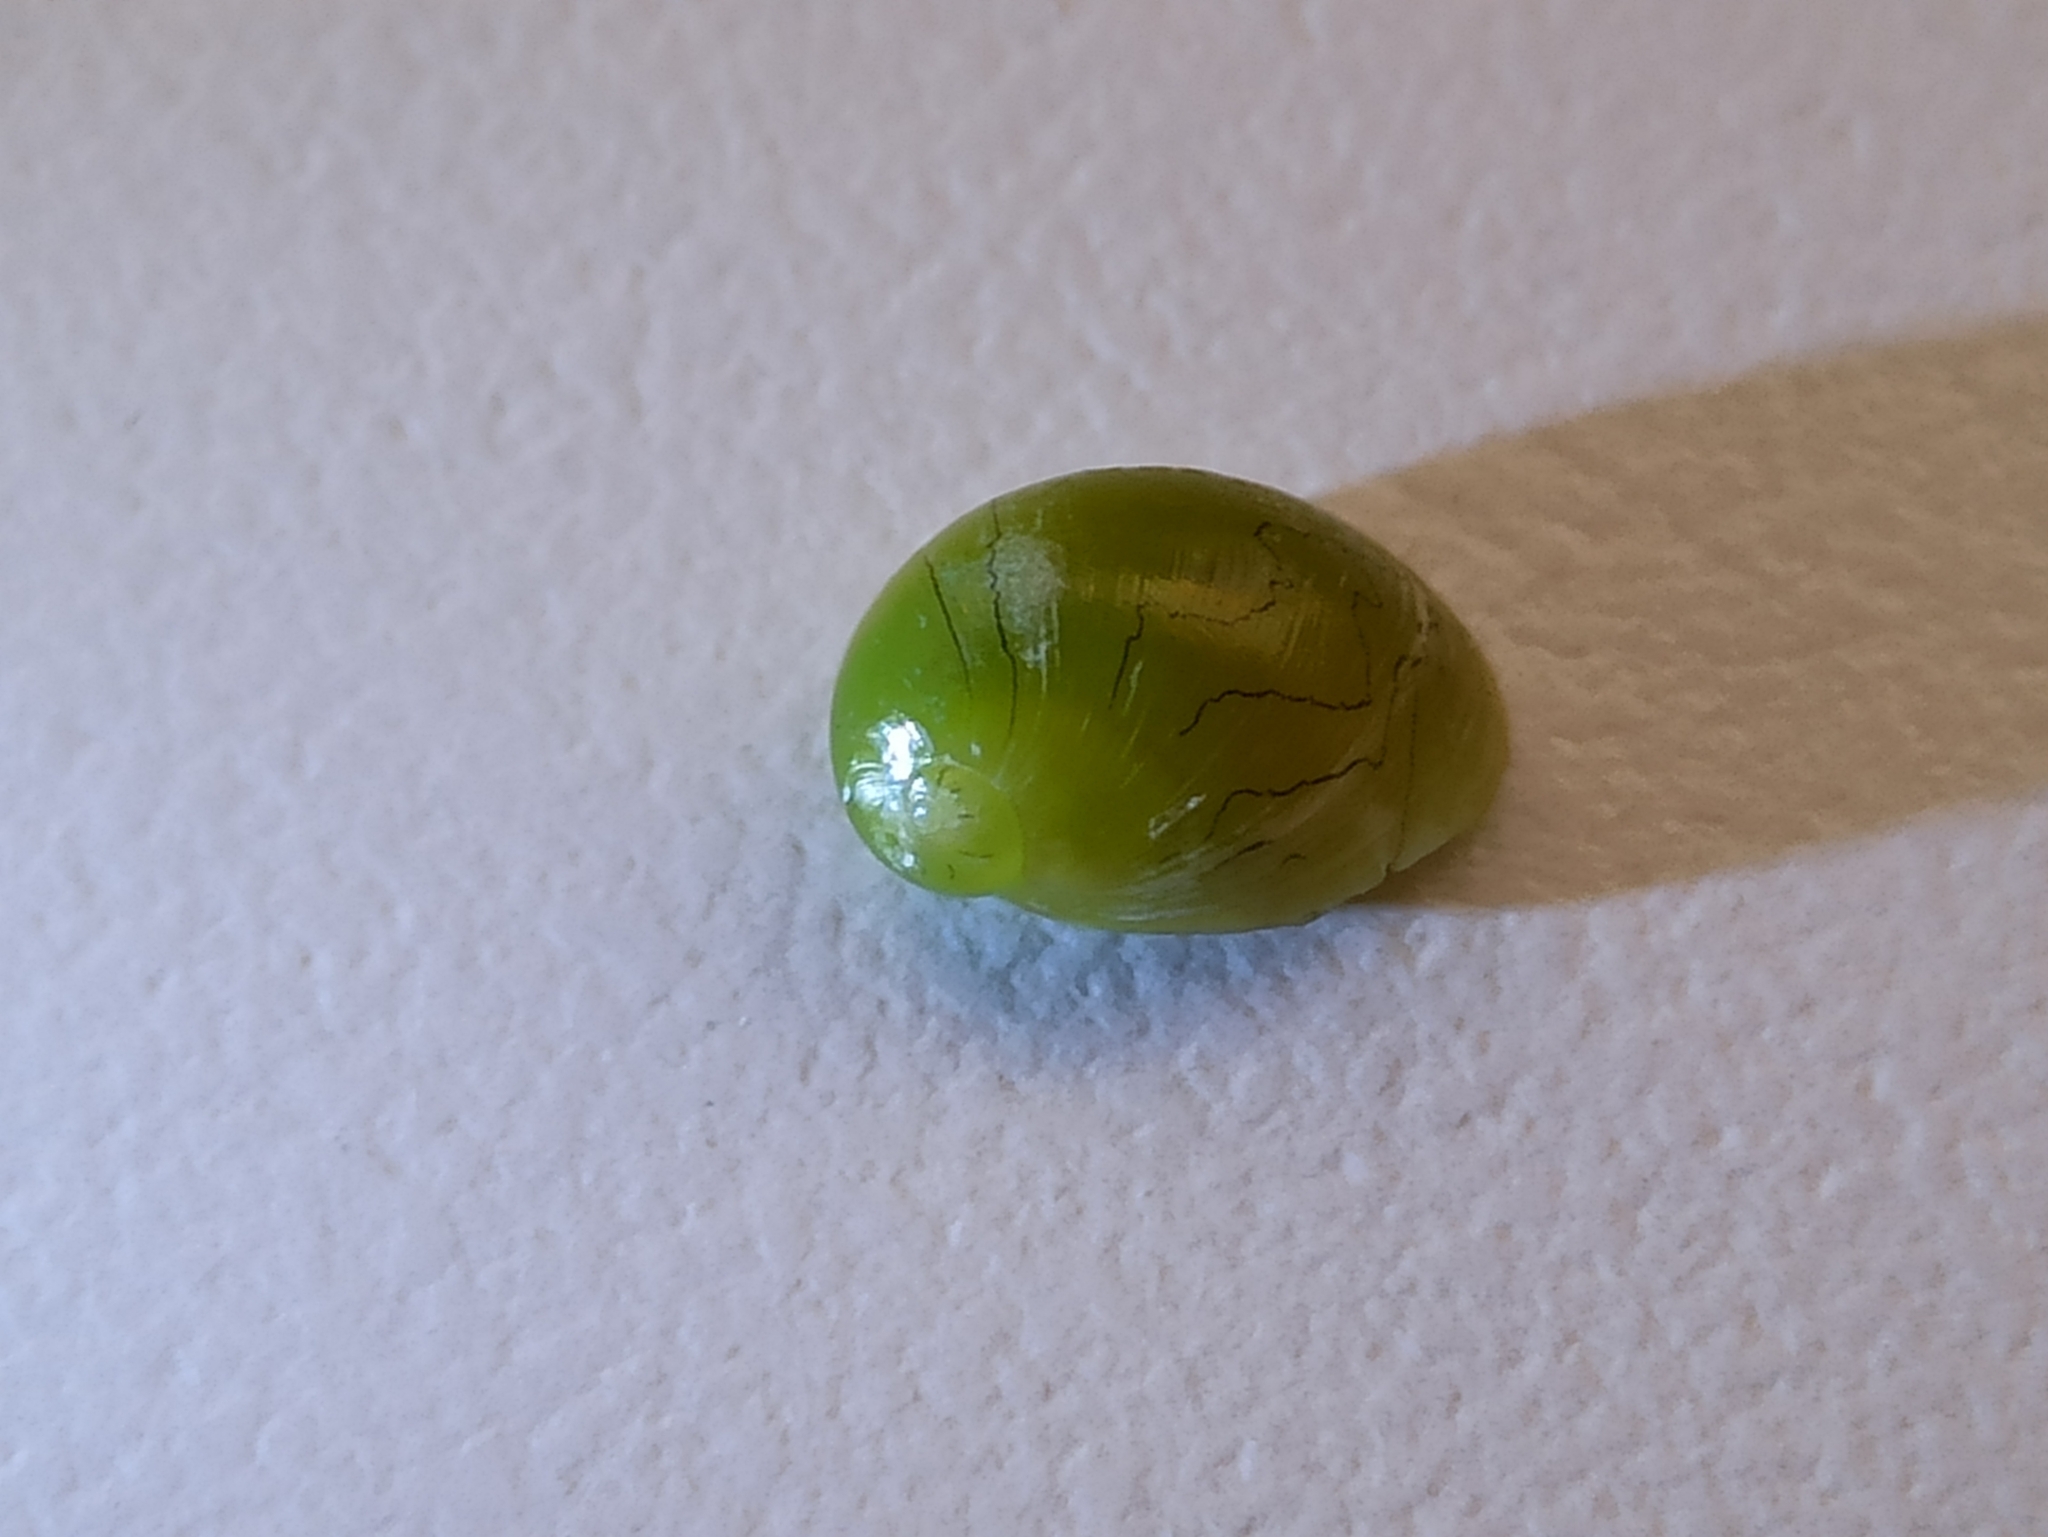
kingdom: Animalia
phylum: Mollusca
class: Gastropoda
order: Cycloneritida
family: Neritidae
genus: Smaragdia
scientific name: Smaragdia viridis
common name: Emerald nerite
